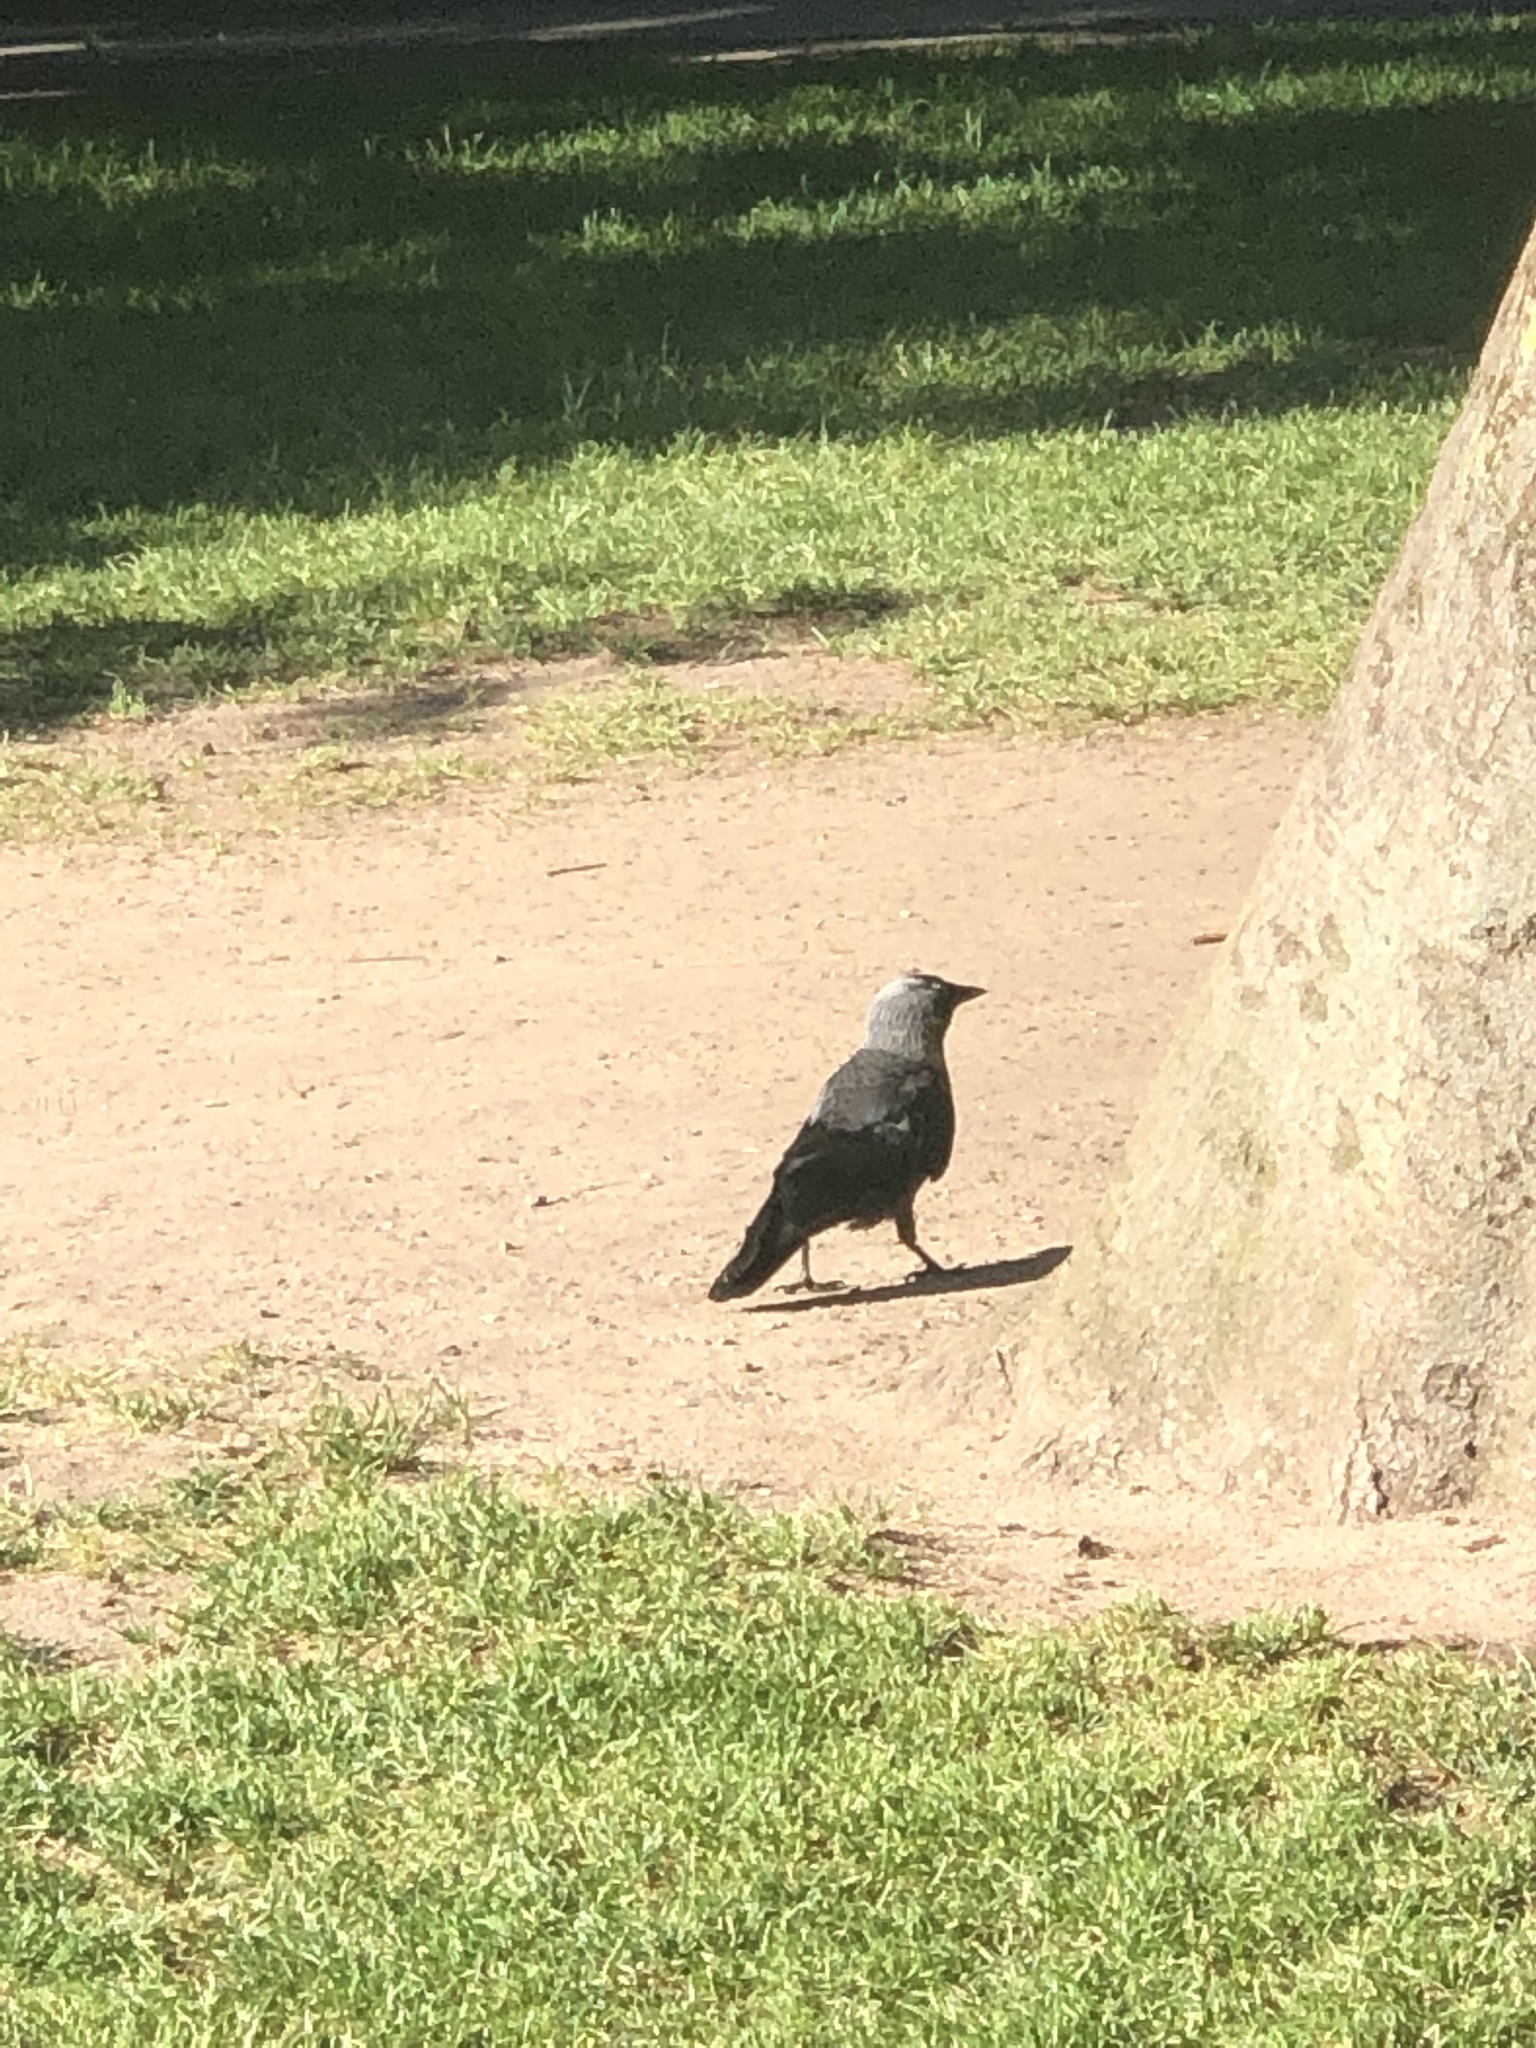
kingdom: Animalia
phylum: Chordata
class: Aves
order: Passeriformes
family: Corvidae
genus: Coloeus
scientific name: Coloeus monedula
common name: Western jackdaw
